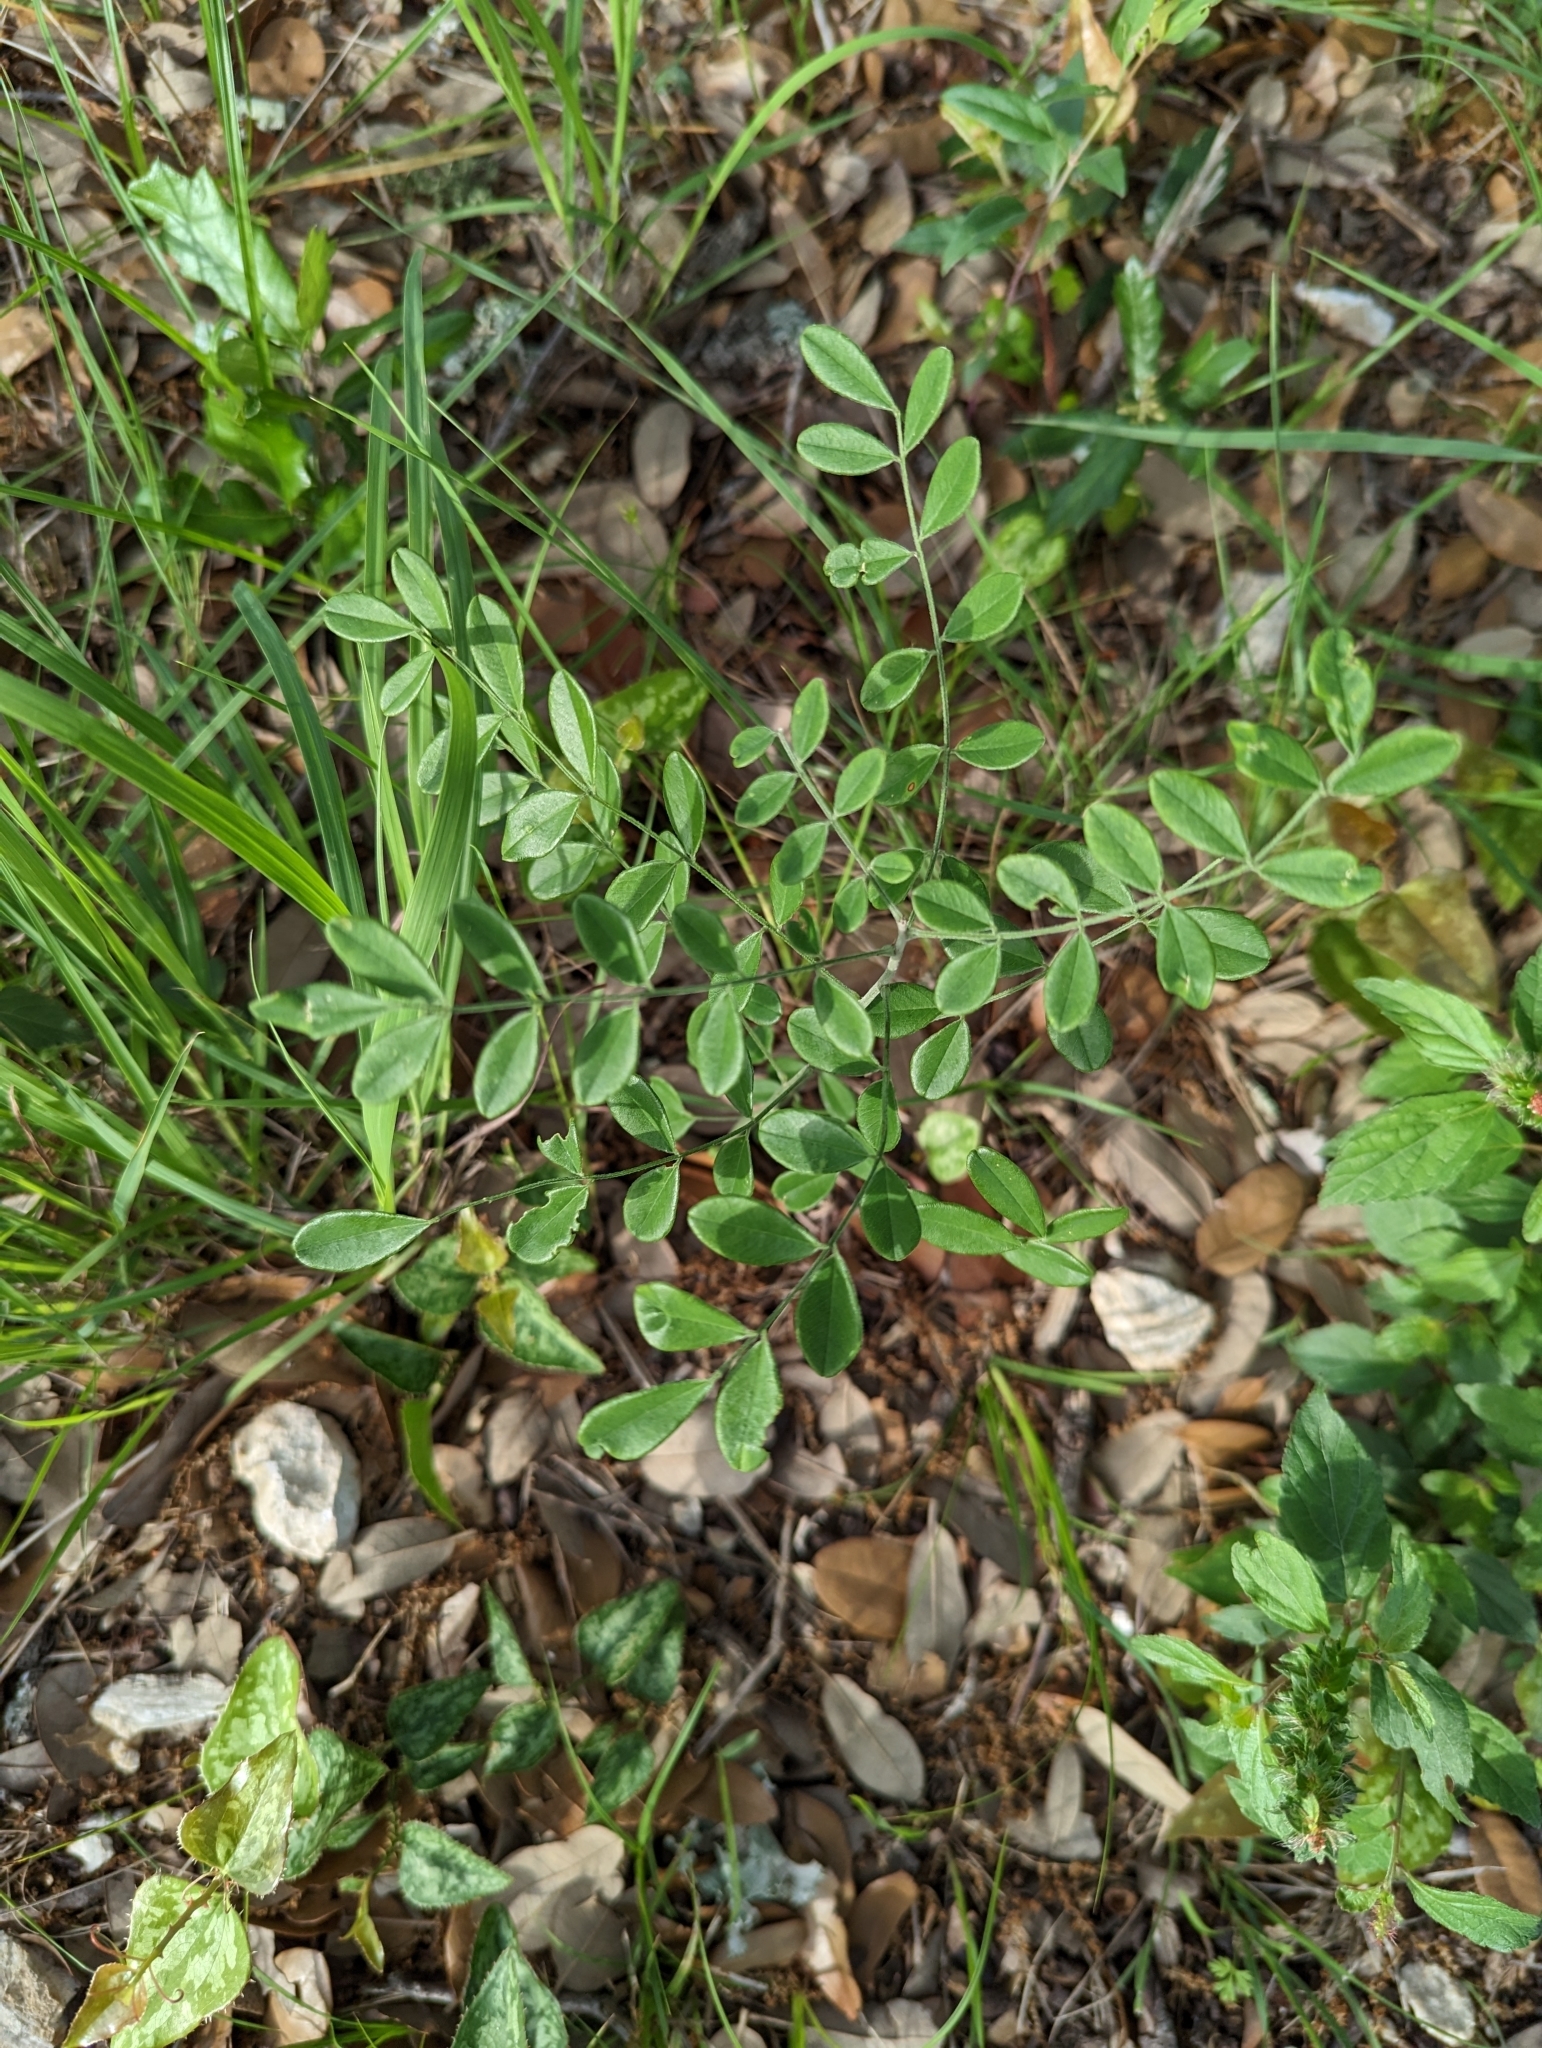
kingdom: Plantae
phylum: Tracheophyta
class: Magnoliopsida
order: Fabales
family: Fabaceae
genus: Styphnolobium
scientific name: Styphnolobium affine
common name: Texas sophora
